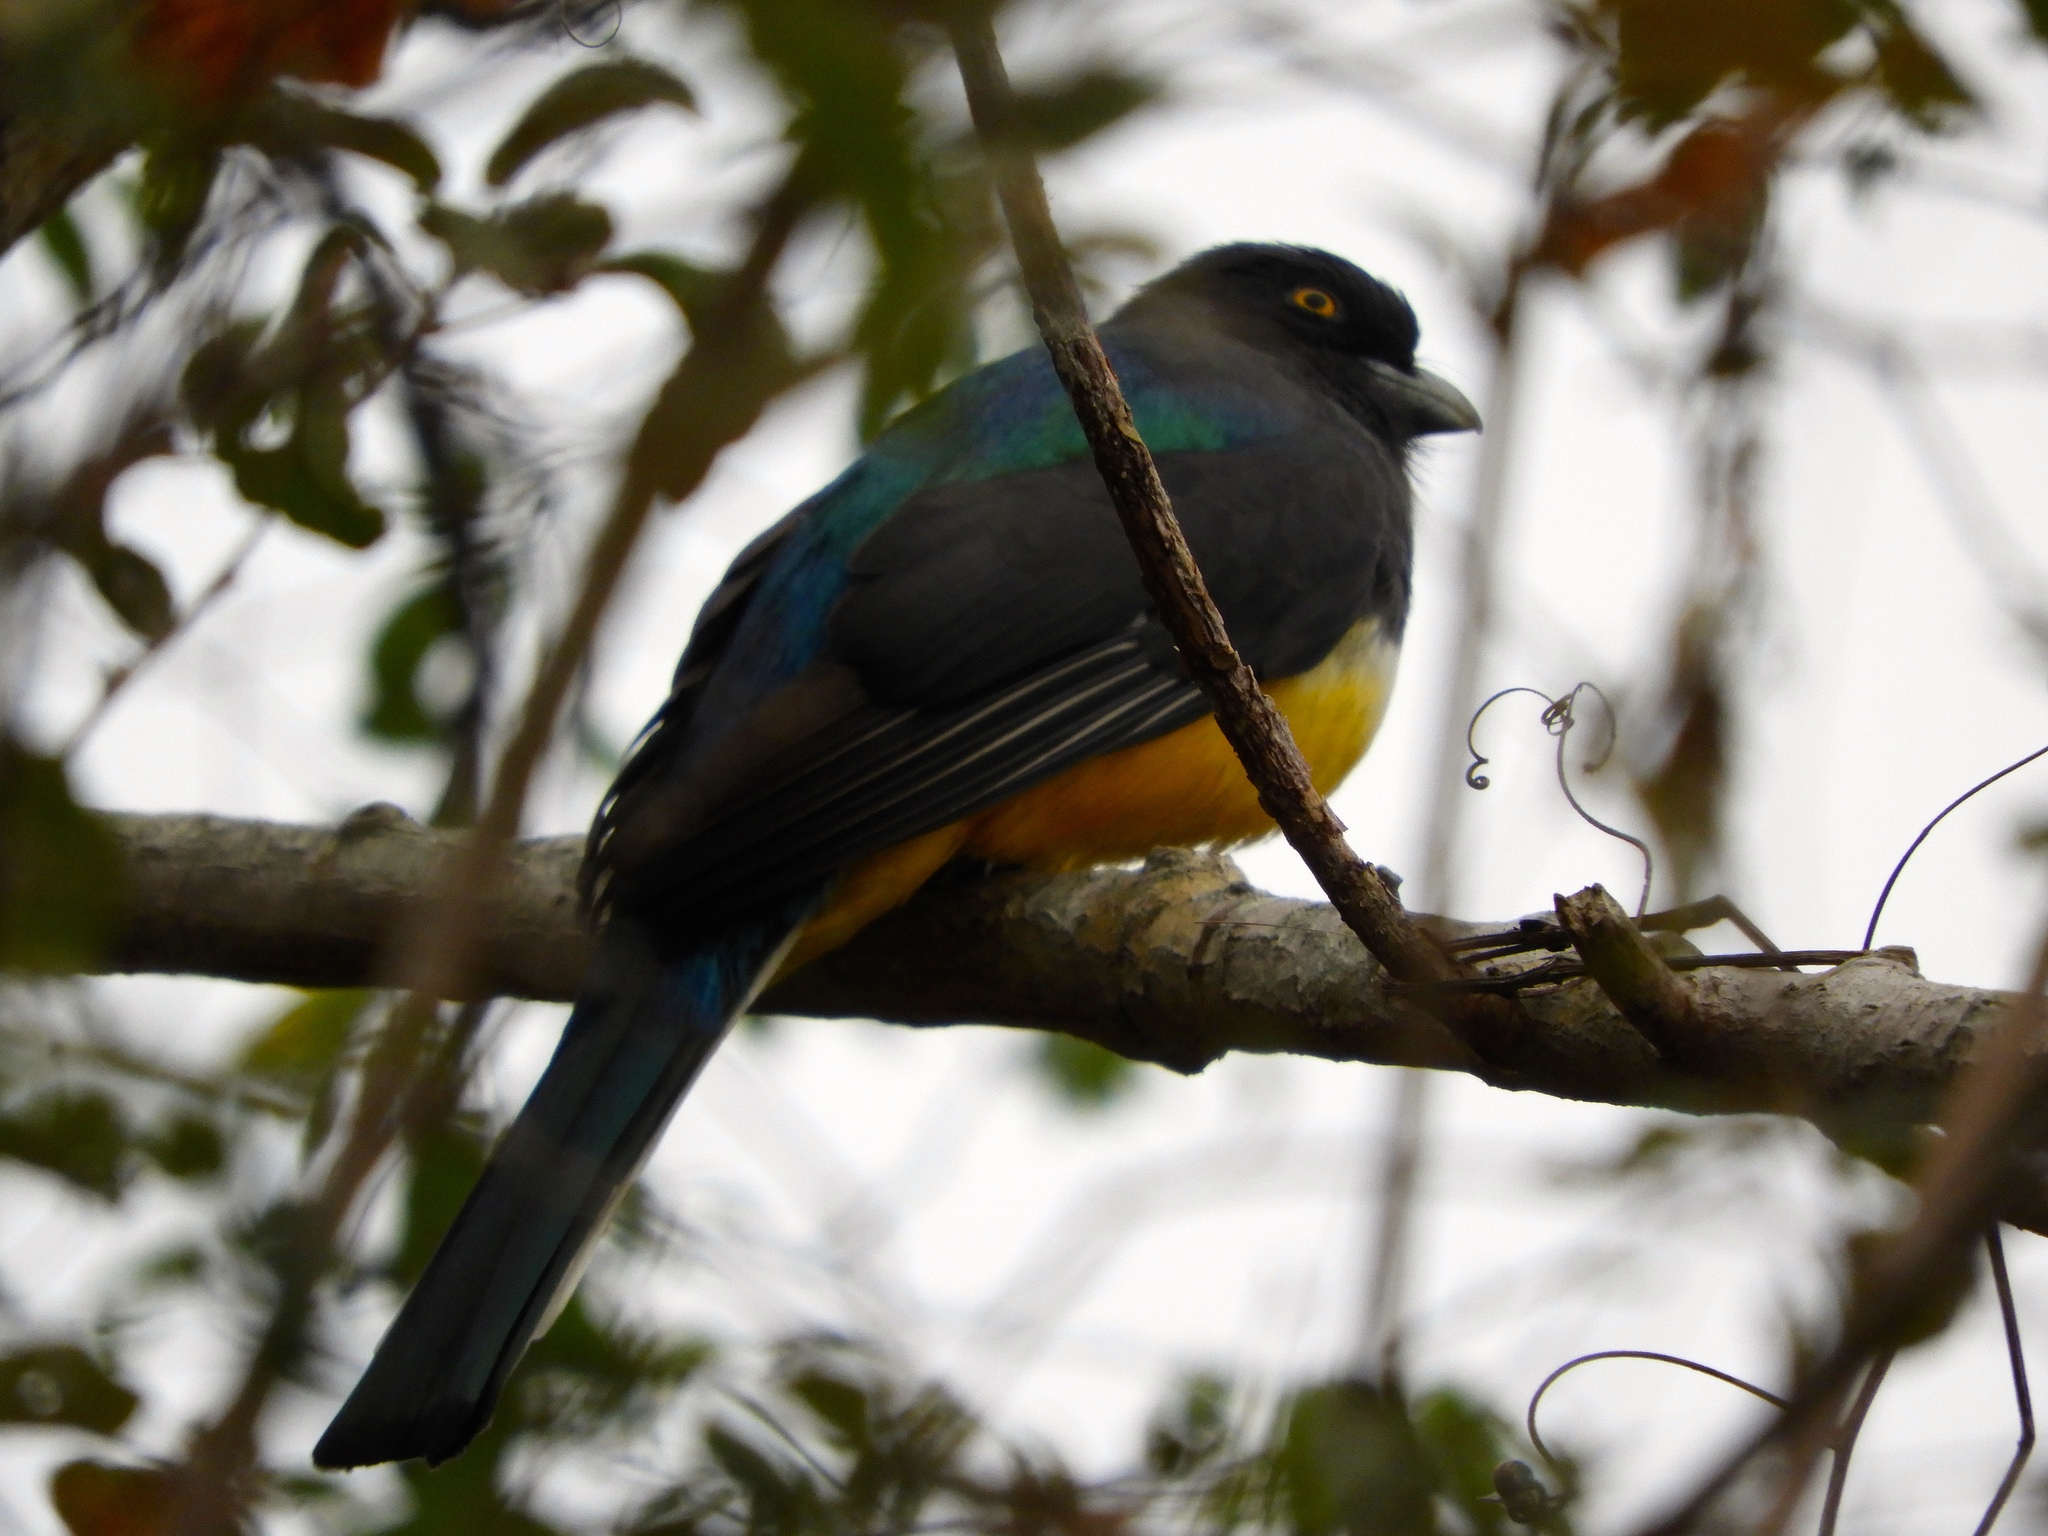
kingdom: Animalia
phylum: Chordata
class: Aves
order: Trogoniformes
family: Trogonidae
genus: Trogon
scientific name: Trogon citreolus
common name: Citreoline trogon
